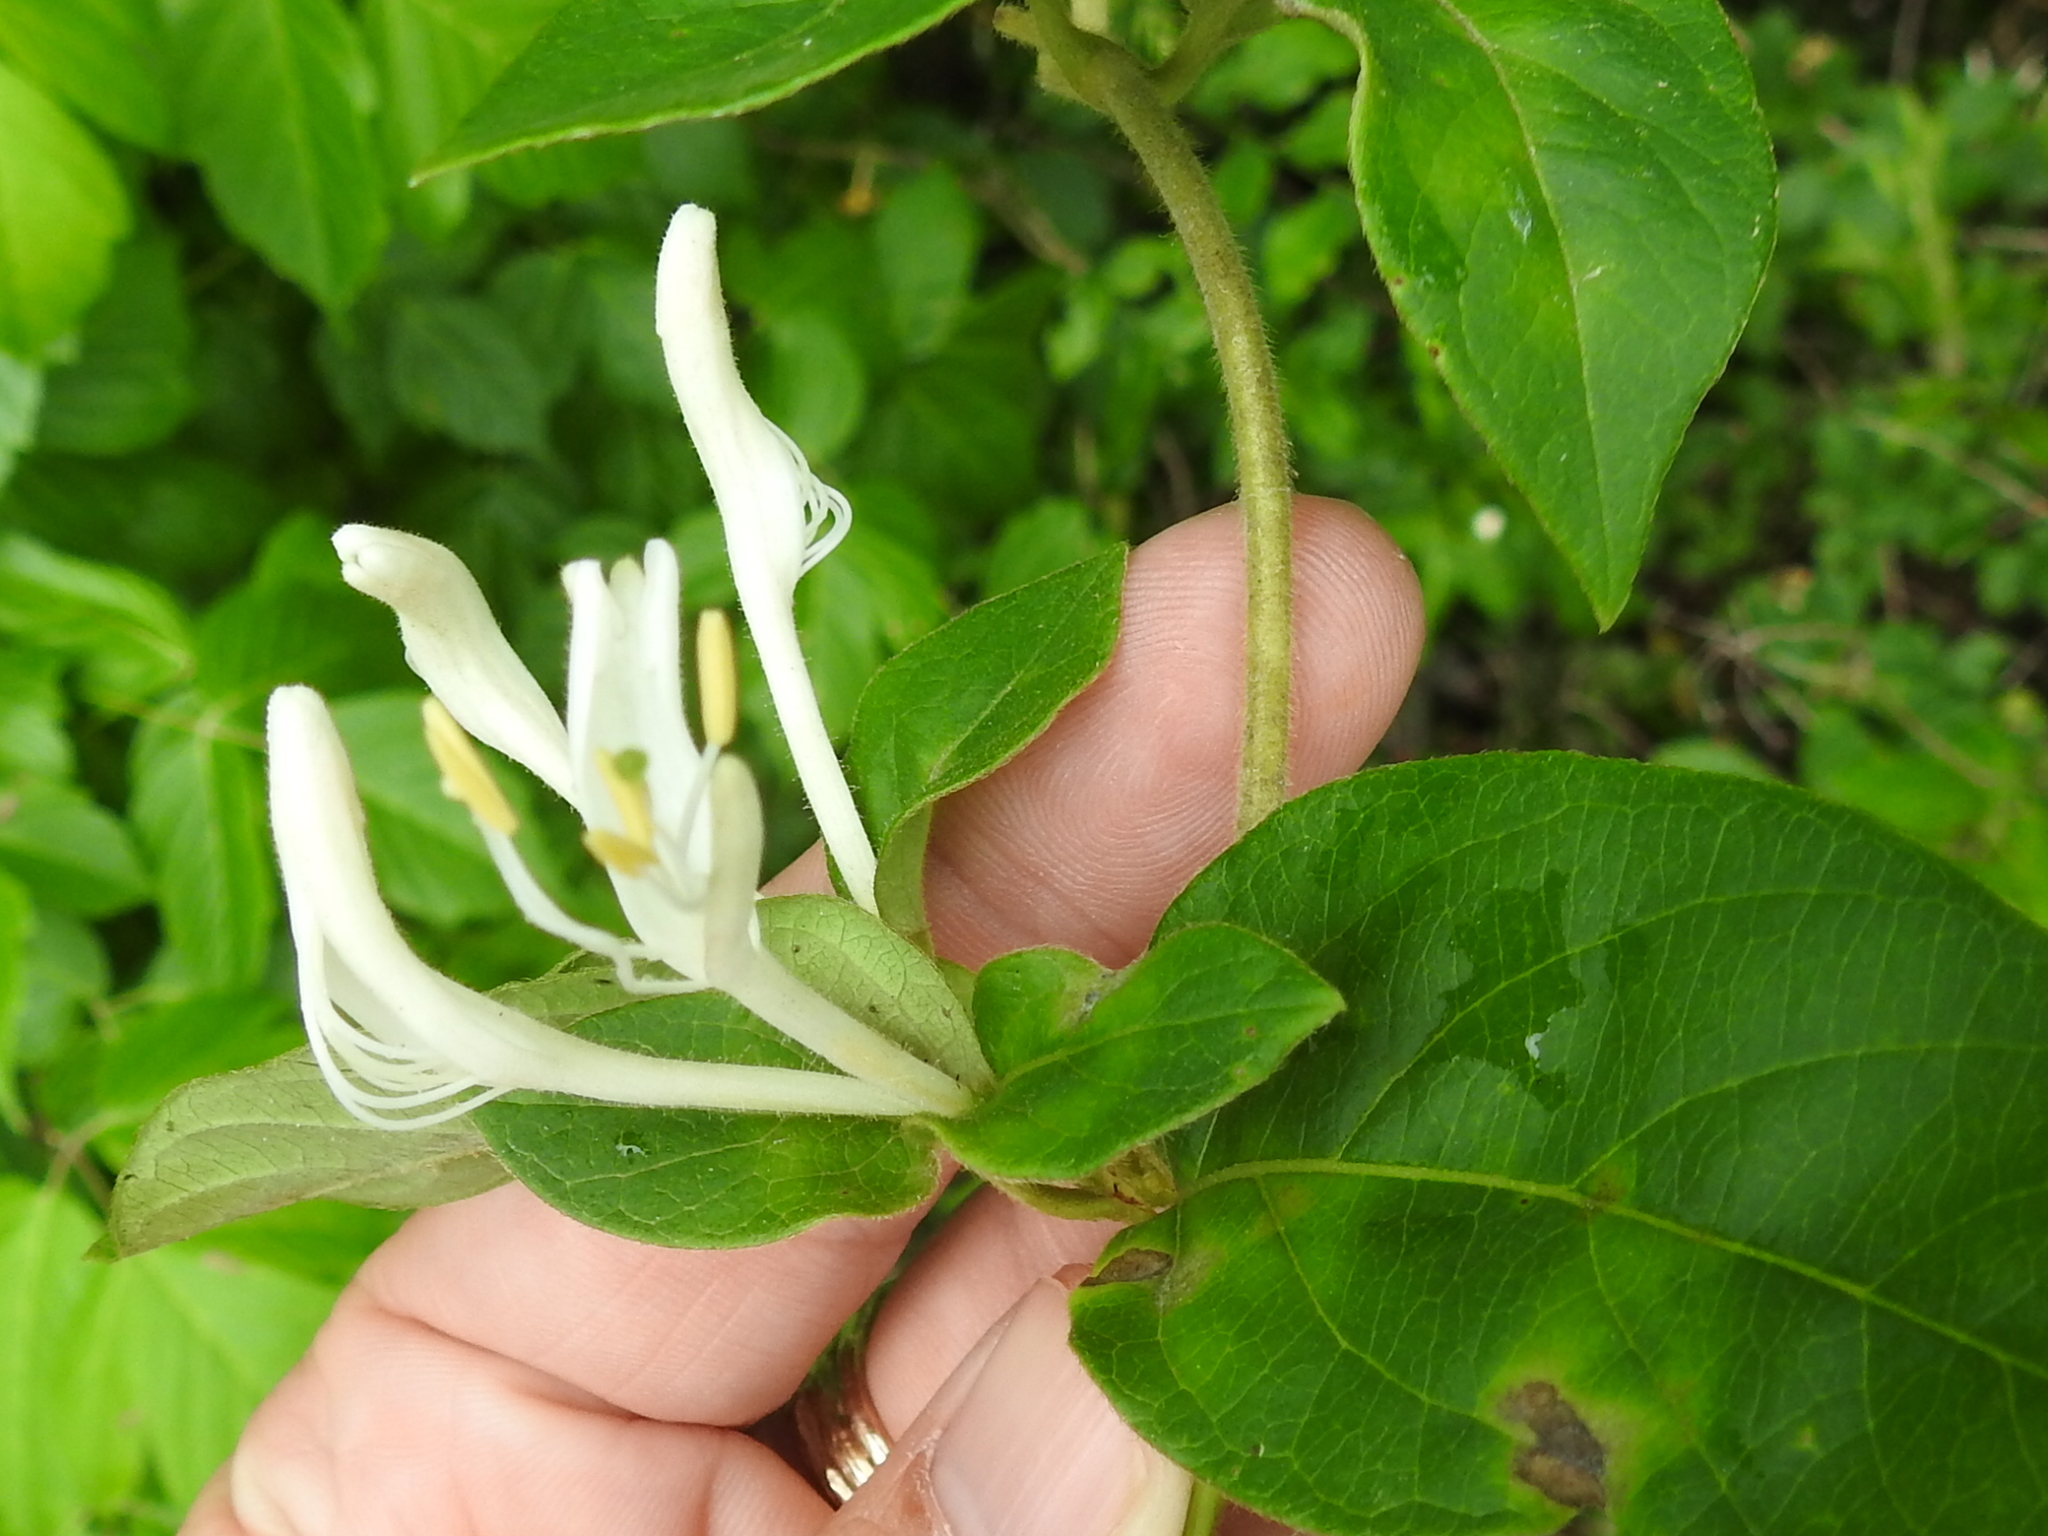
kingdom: Plantae
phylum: Tracheophyta
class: Magnoliopsida
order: Dipsacales
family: Caprifoliaceae
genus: Lonicera
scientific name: Lonicera japonica
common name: Japanese honeysuckle
